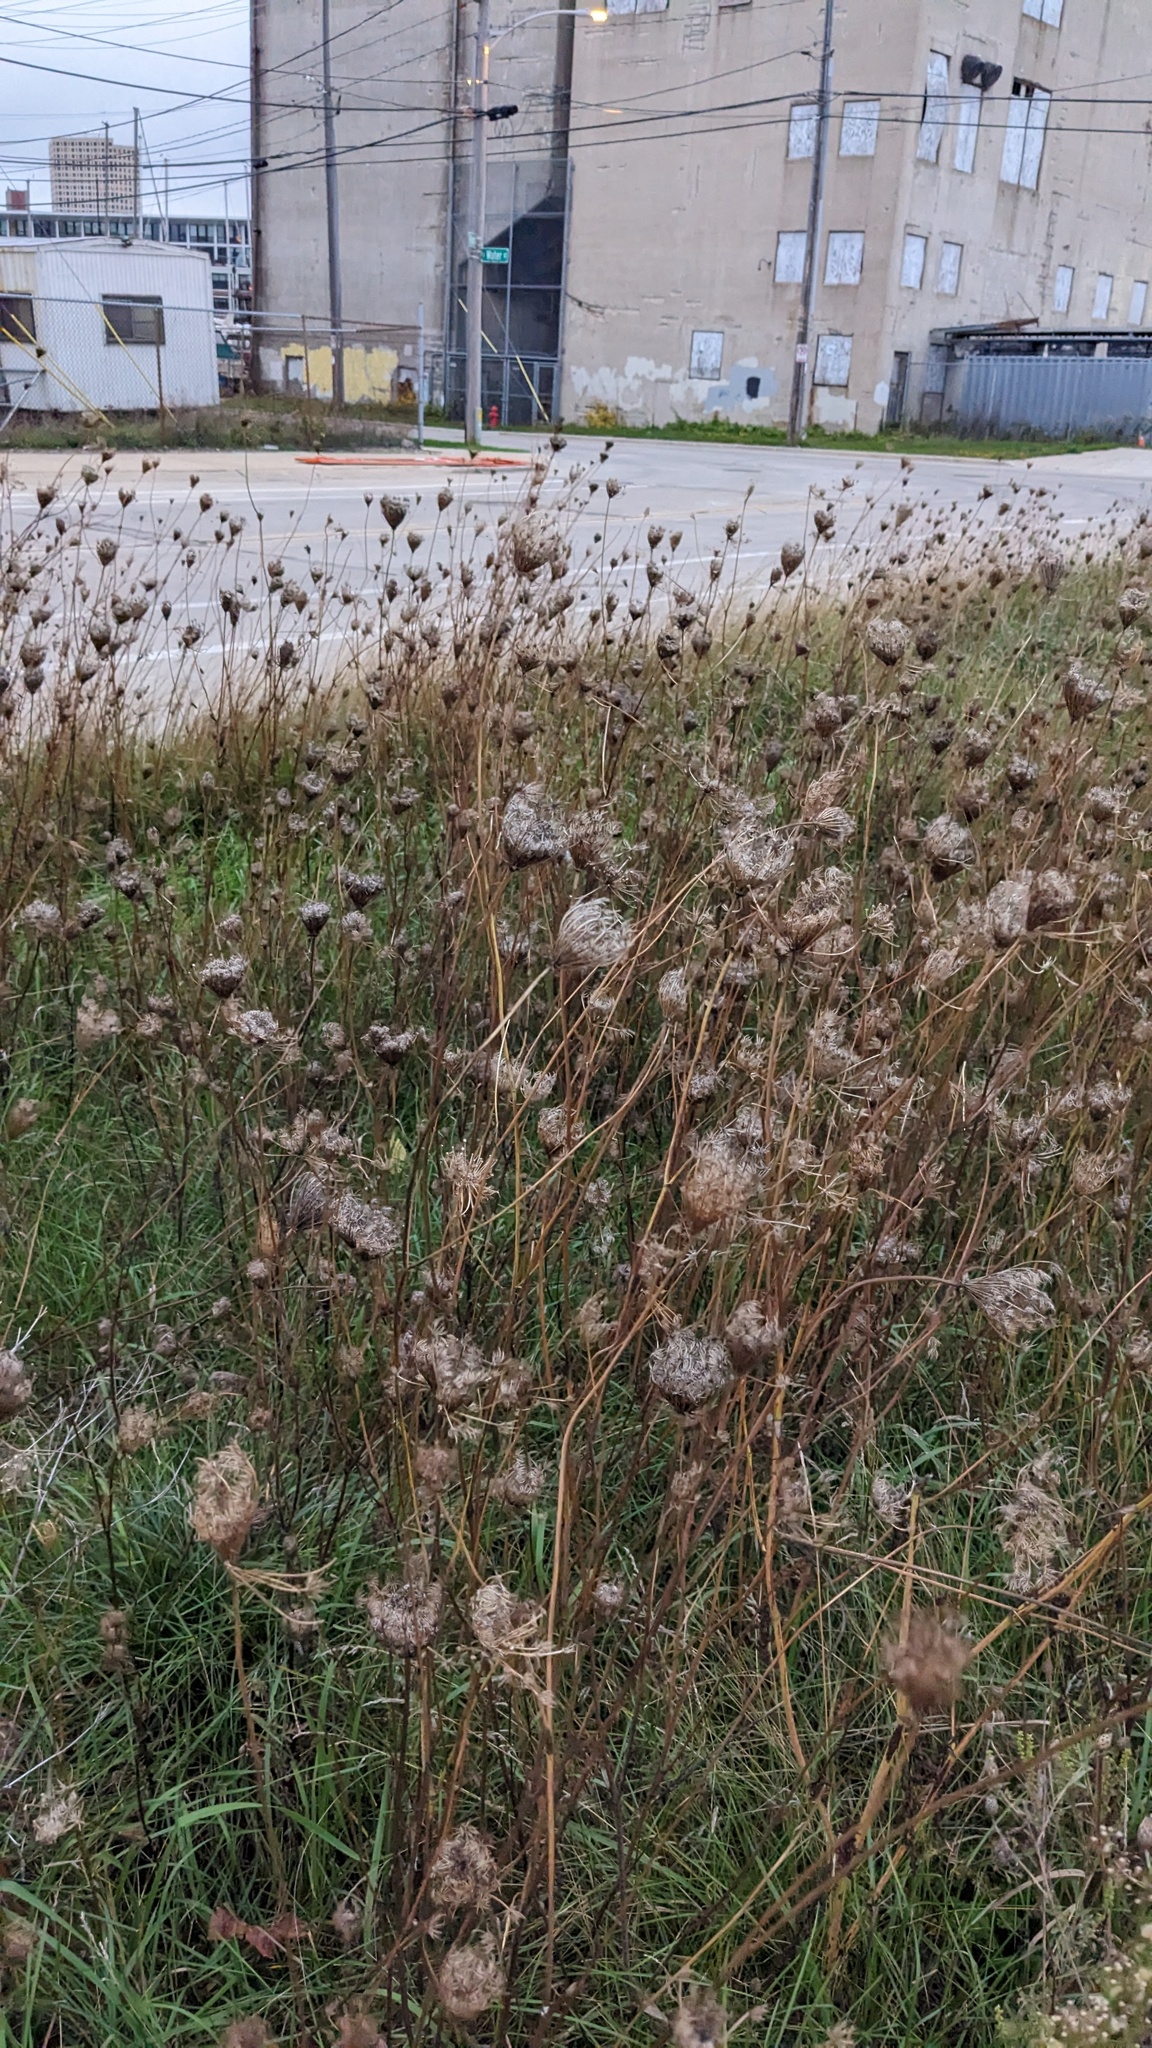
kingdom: Plantae
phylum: Tracheophyta
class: Magnoliopsida
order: Apiales
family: Apiaceae
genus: Daucus
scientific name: Daucus carota
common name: Wild carrot
